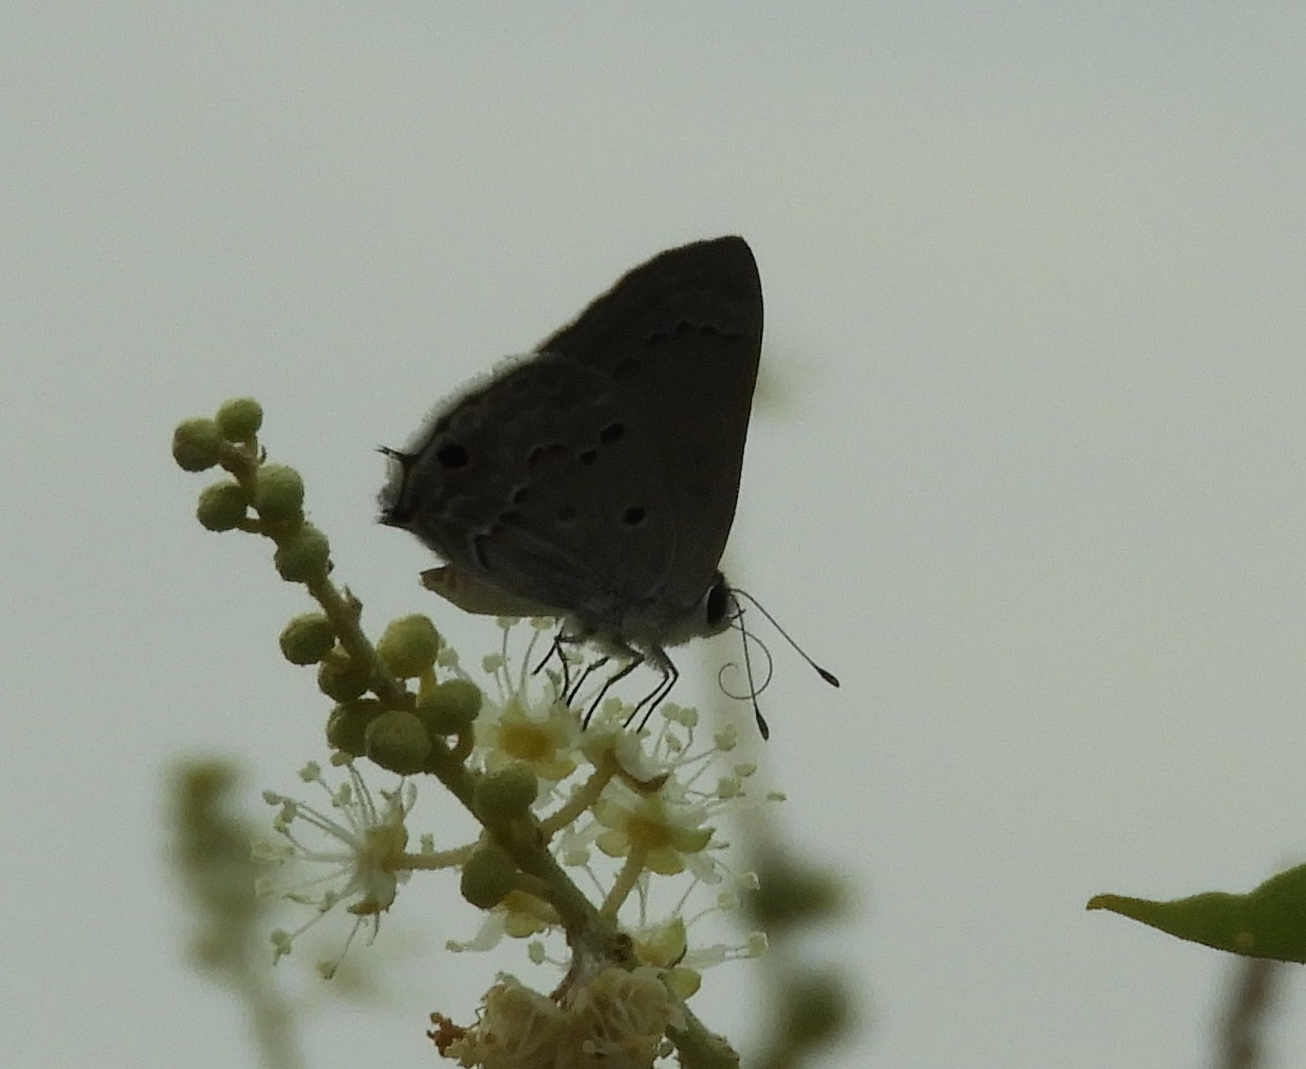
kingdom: Animalia
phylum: Arthropoda
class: Insecta
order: Lepidoptera
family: Lycaenidae
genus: Callicista
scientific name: Callicista columella
